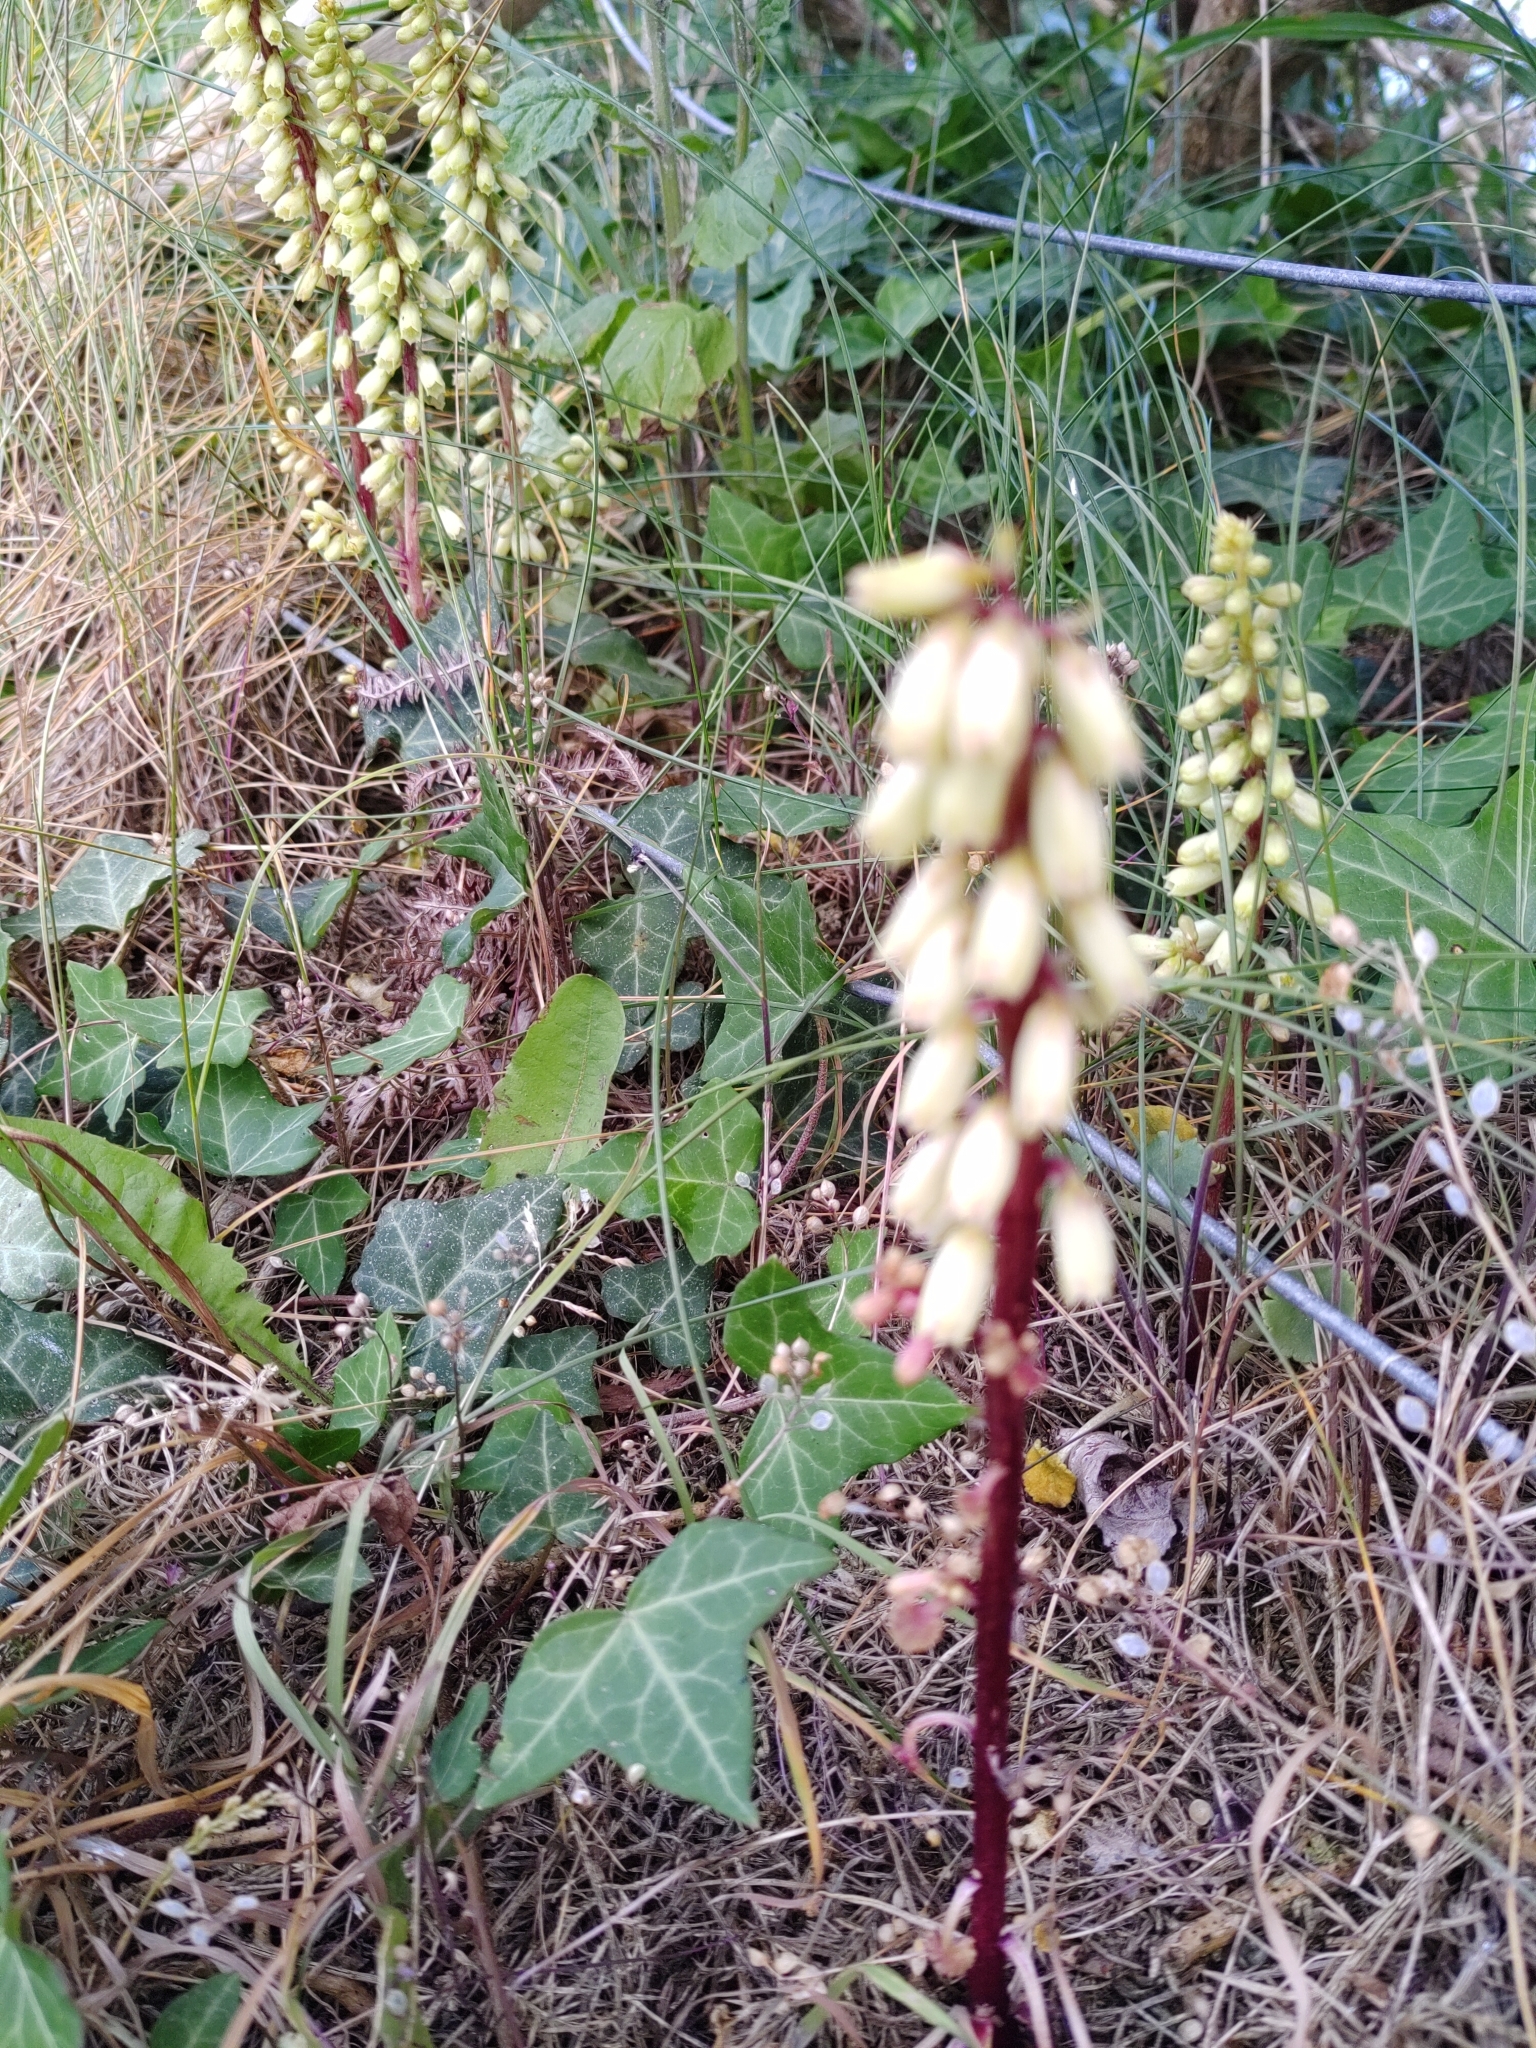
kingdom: Plantae
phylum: Tracheophyta
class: Magnoliopsida
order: Saxifragales
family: Crassulaceae
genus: Umbilicus
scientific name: Umbilicus rupestris
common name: Navelwort
